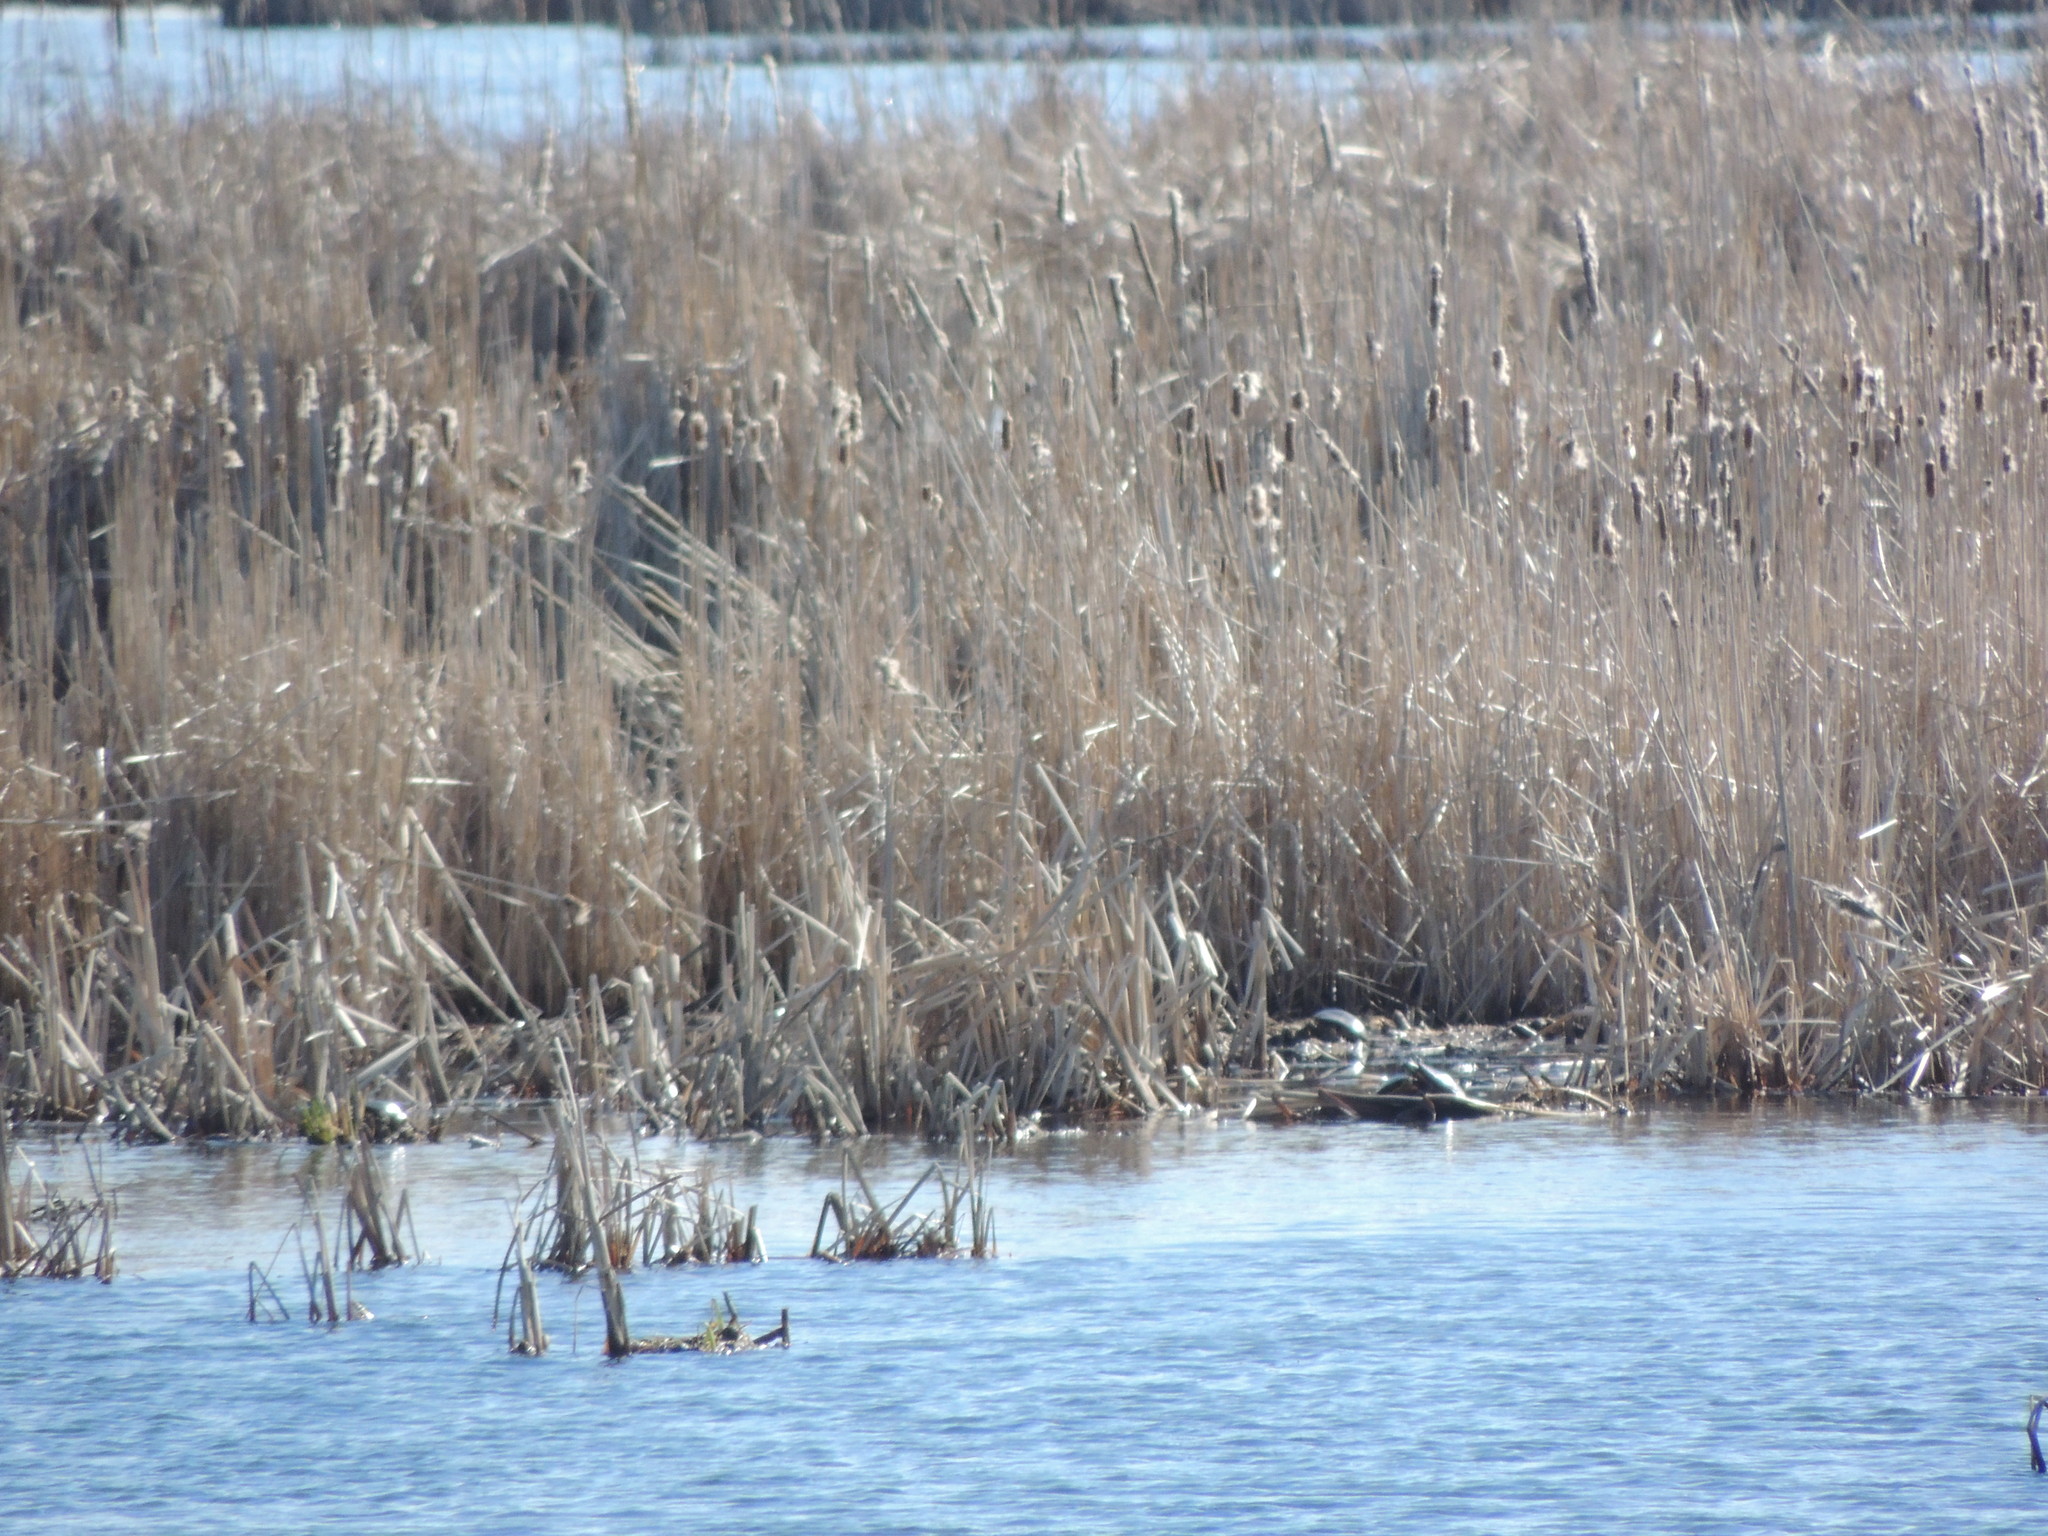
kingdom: Animalia
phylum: Chordata
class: Testudines
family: Emydidae
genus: Chrysemys
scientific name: Chrysemys picta
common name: Painted turtle
